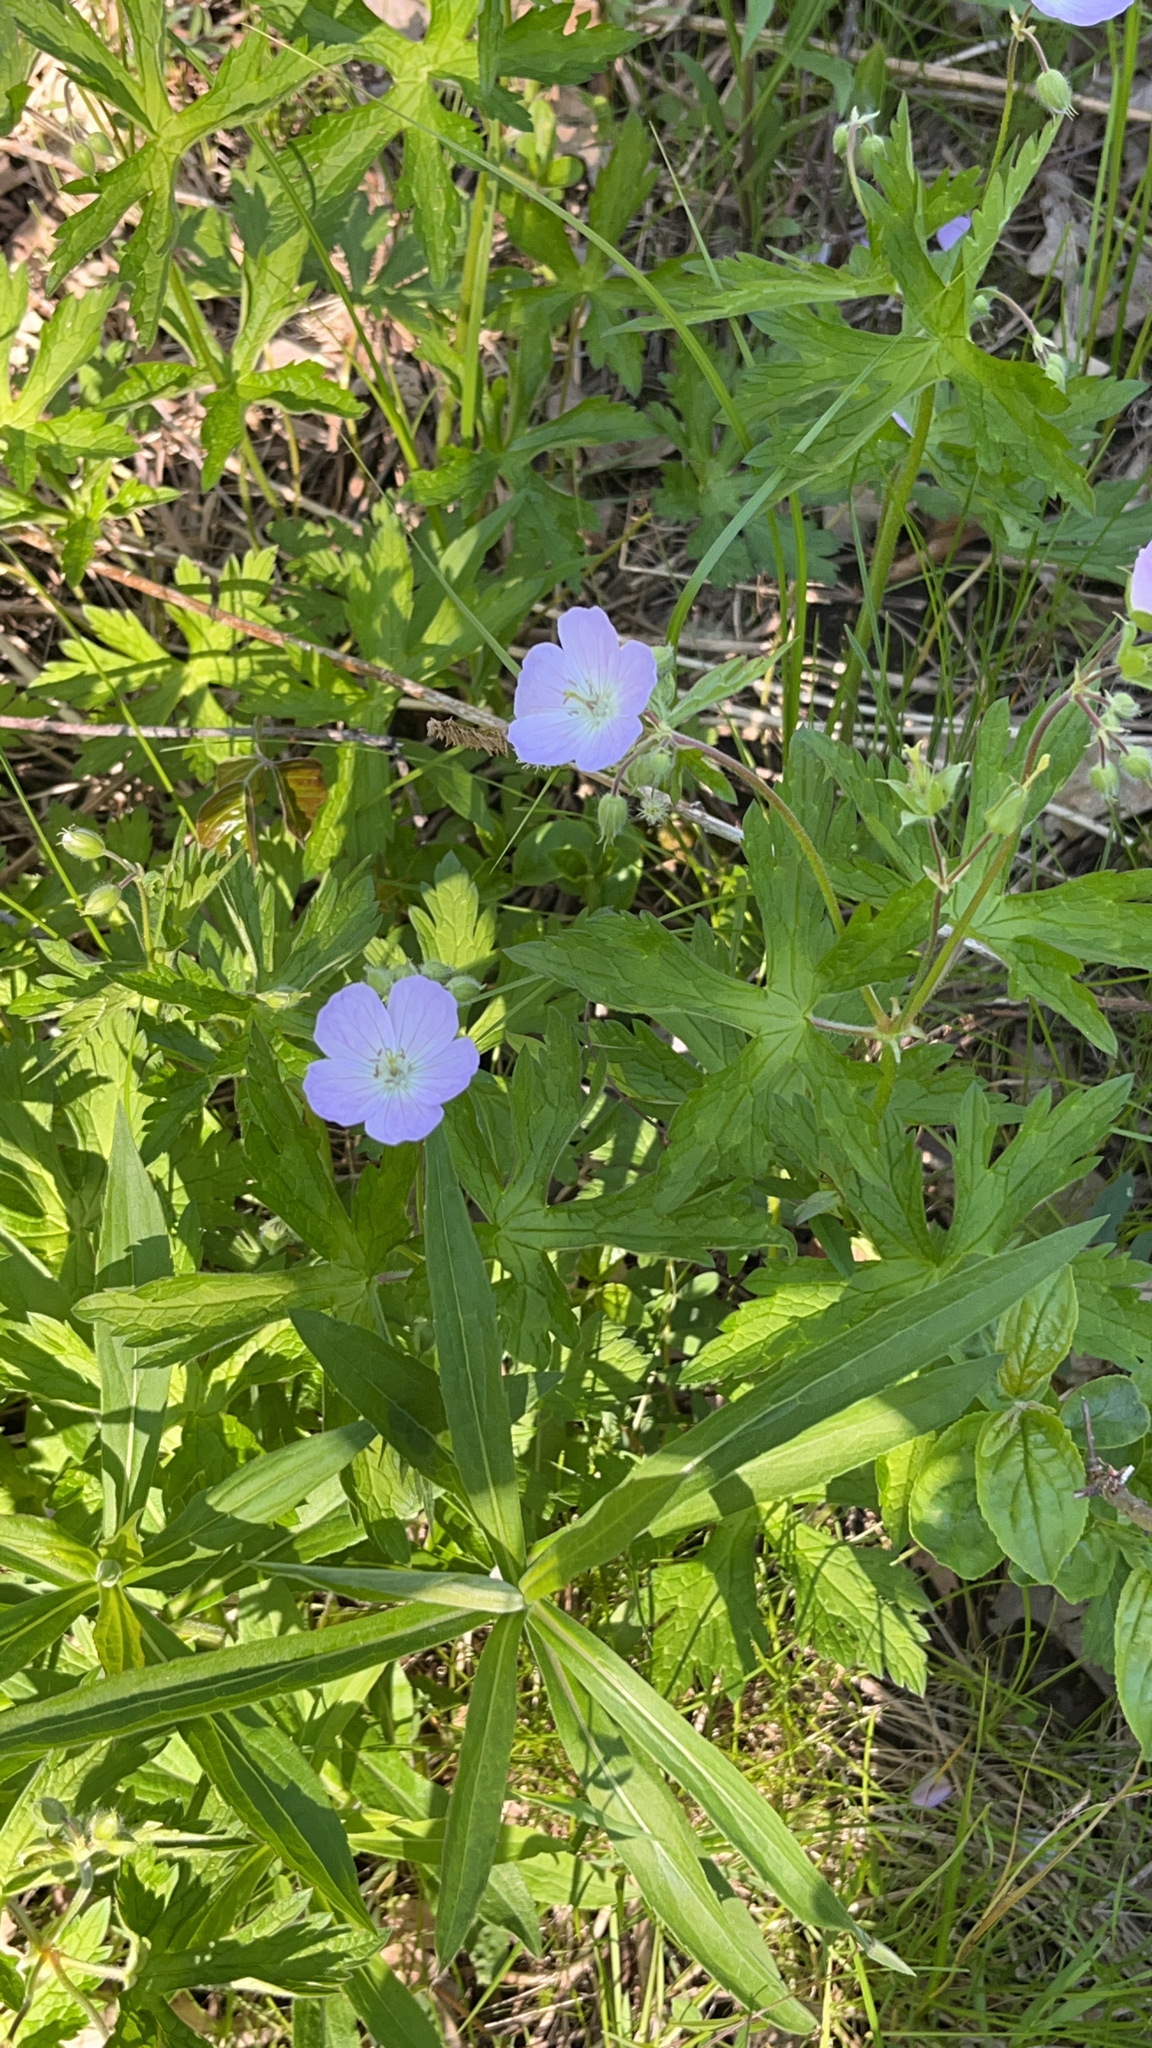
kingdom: Plantae
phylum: Tracheophyta
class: Magnoliopsida
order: Geraniales
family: Geraniaceae
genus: Geranium
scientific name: Geranium maculatum
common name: Spotted geranium
